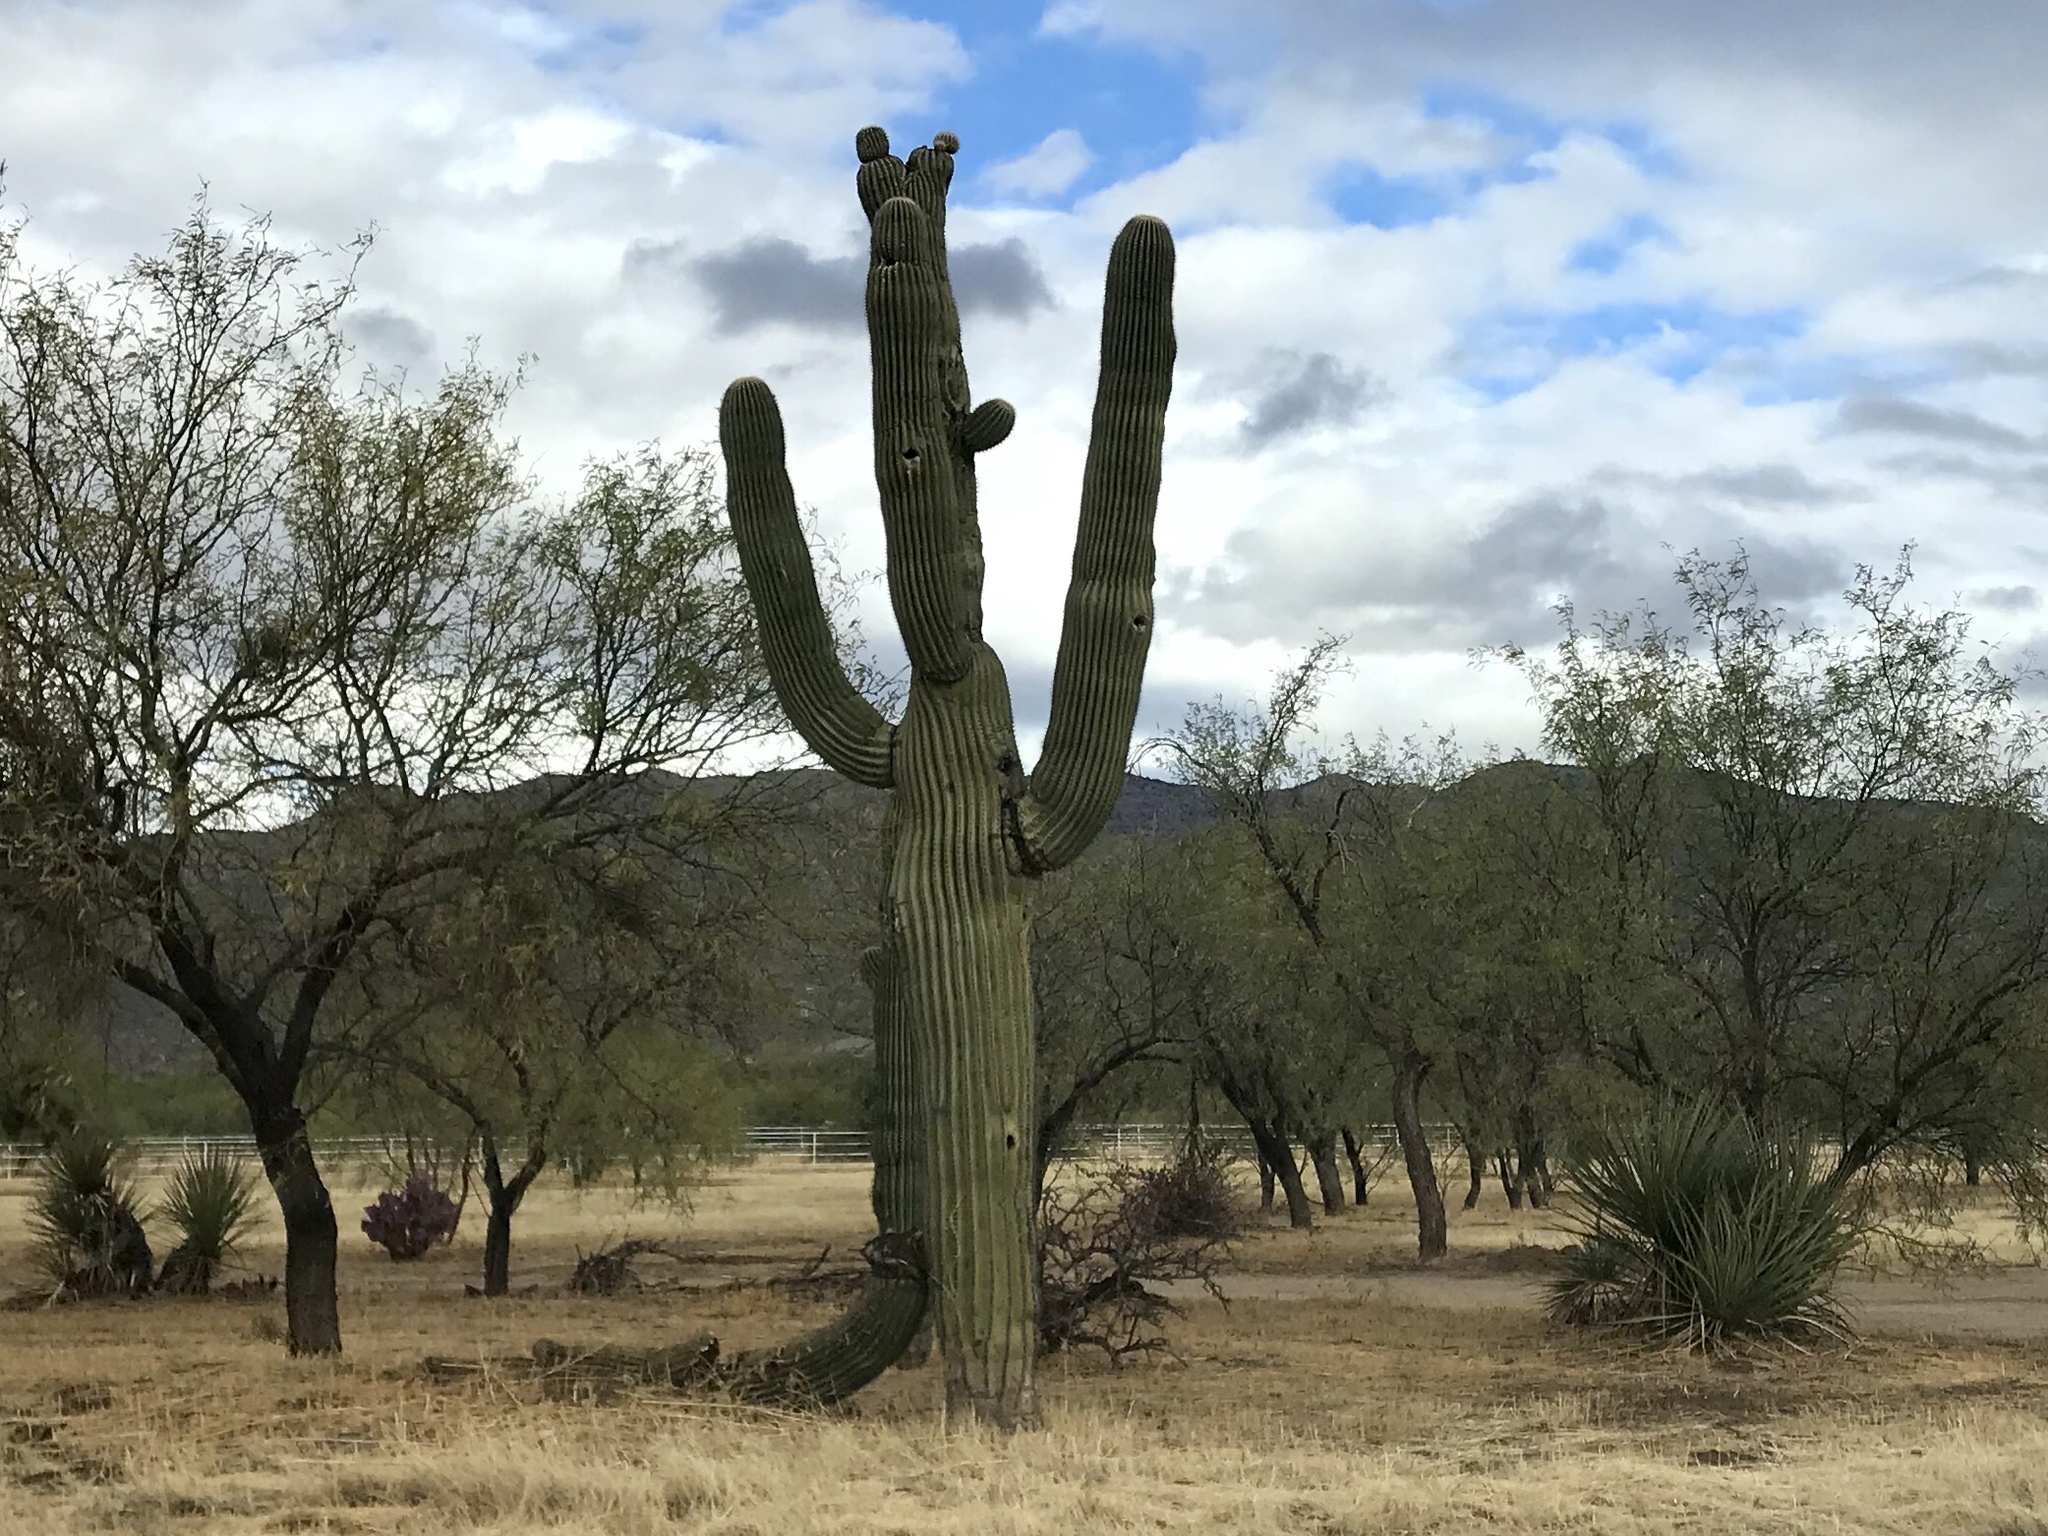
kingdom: Plantae
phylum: Tracheophyta
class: Magnoliopsida
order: Caryophyllales
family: Cactaceae
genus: Carnegiea
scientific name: Carnegiea gigantea
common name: Saguaro
